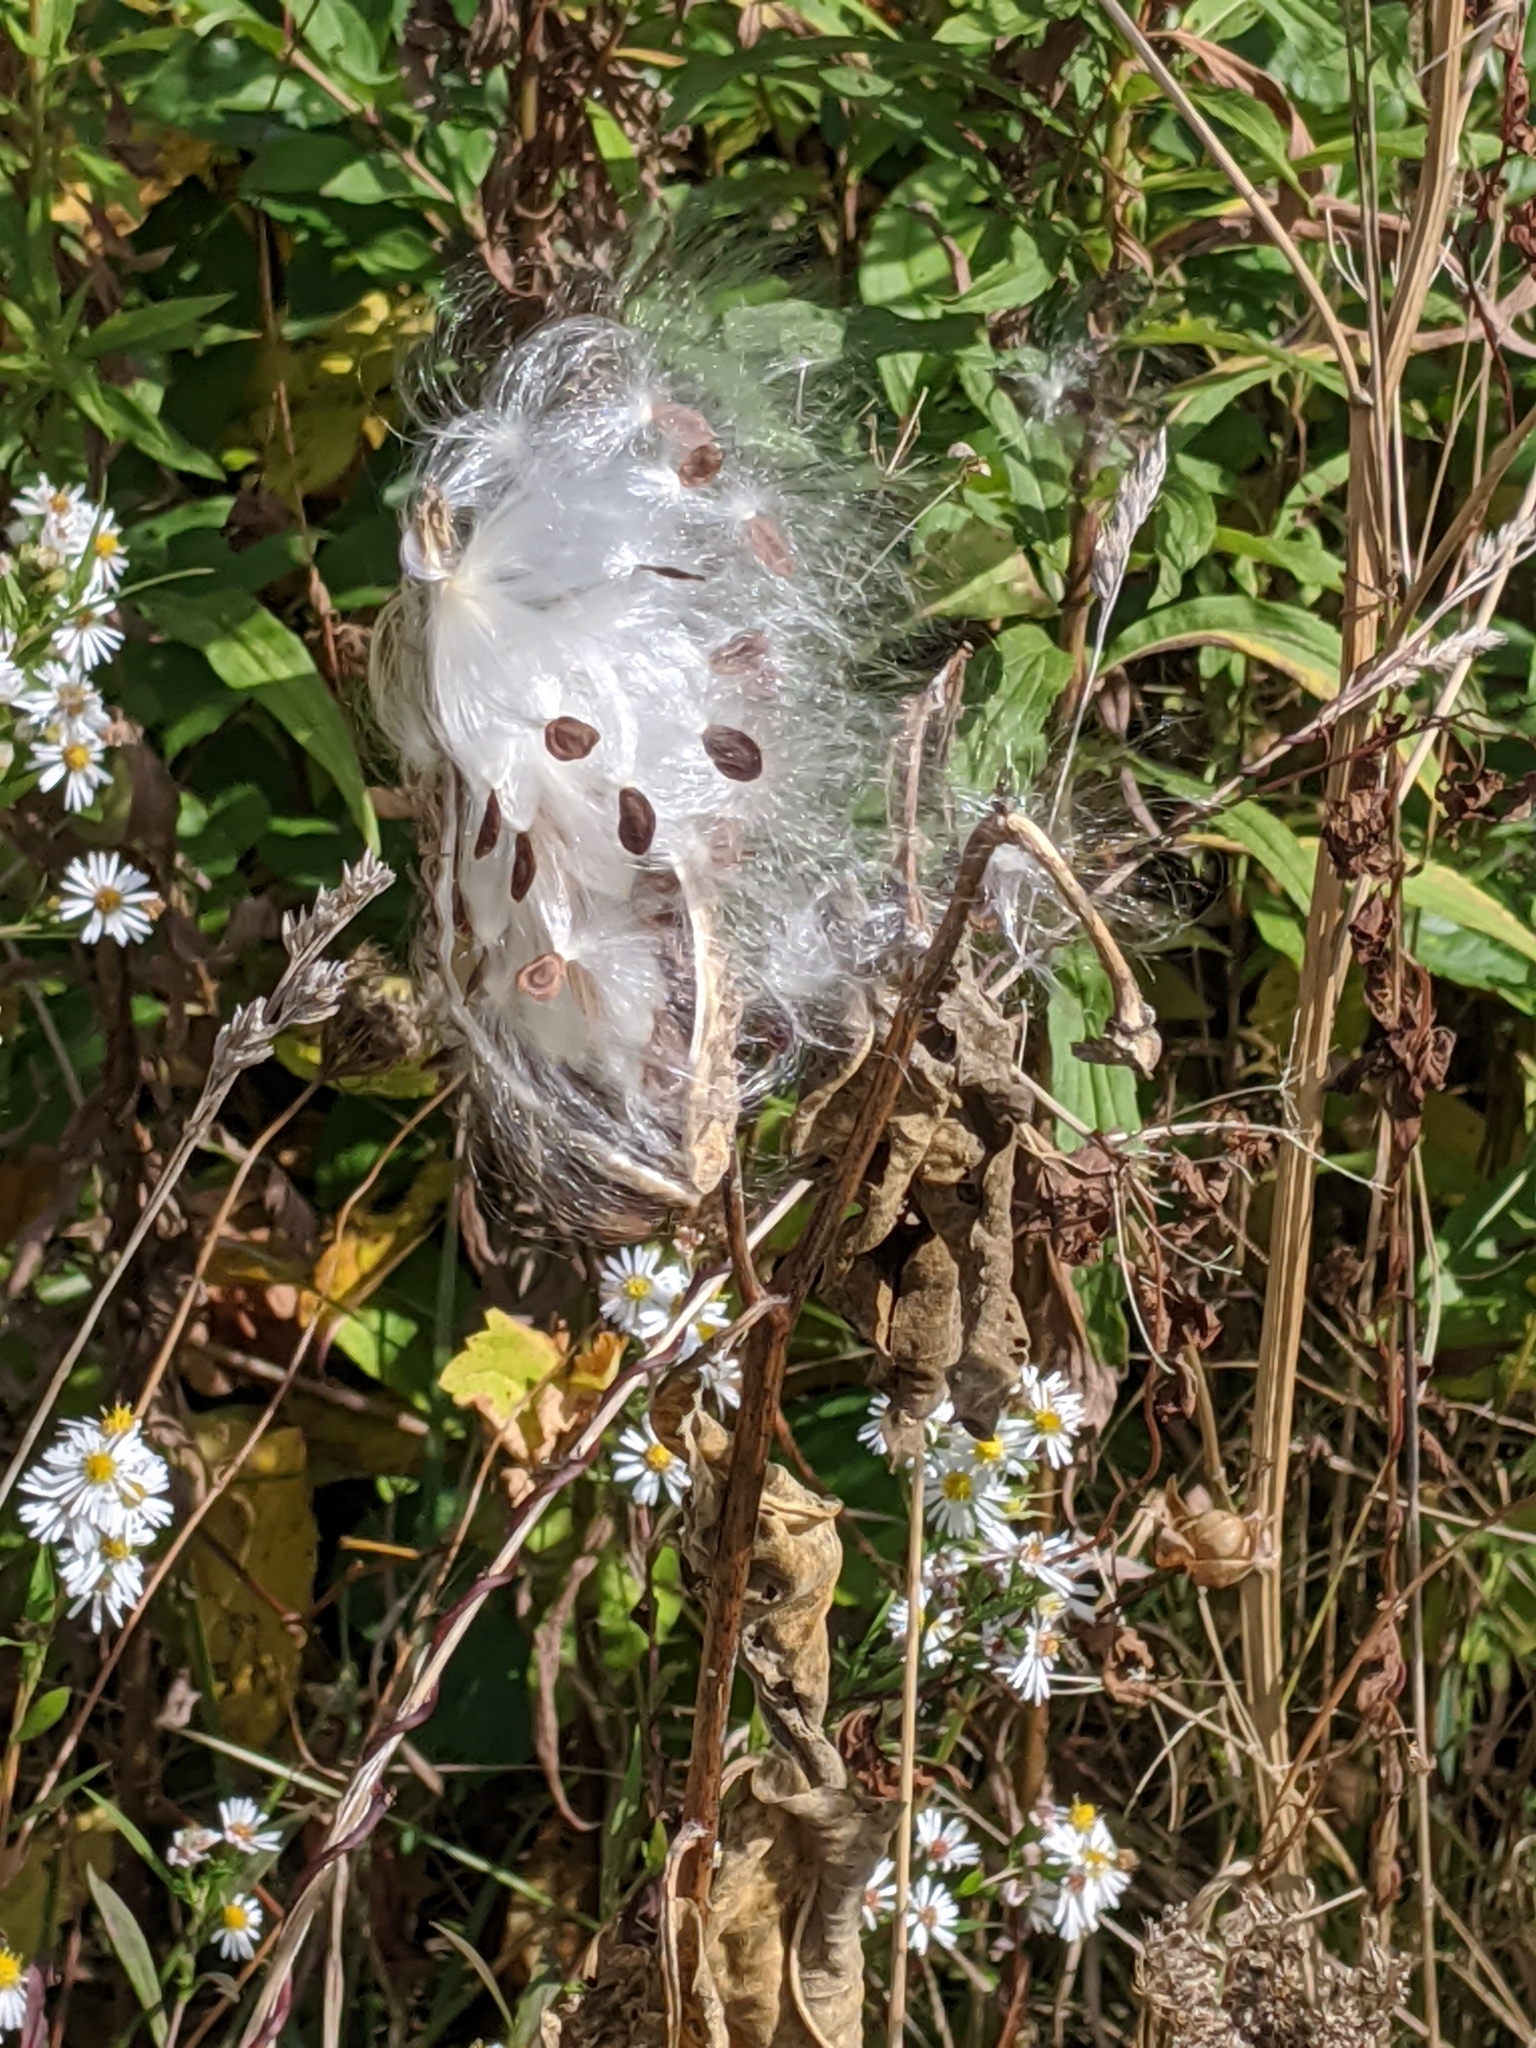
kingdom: Plantae
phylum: Tracheophyta
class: Magnoliopsida
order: Gentianales
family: Apocynaceae
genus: Asclepias
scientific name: Asclepias syriaca
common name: Common milkweed
